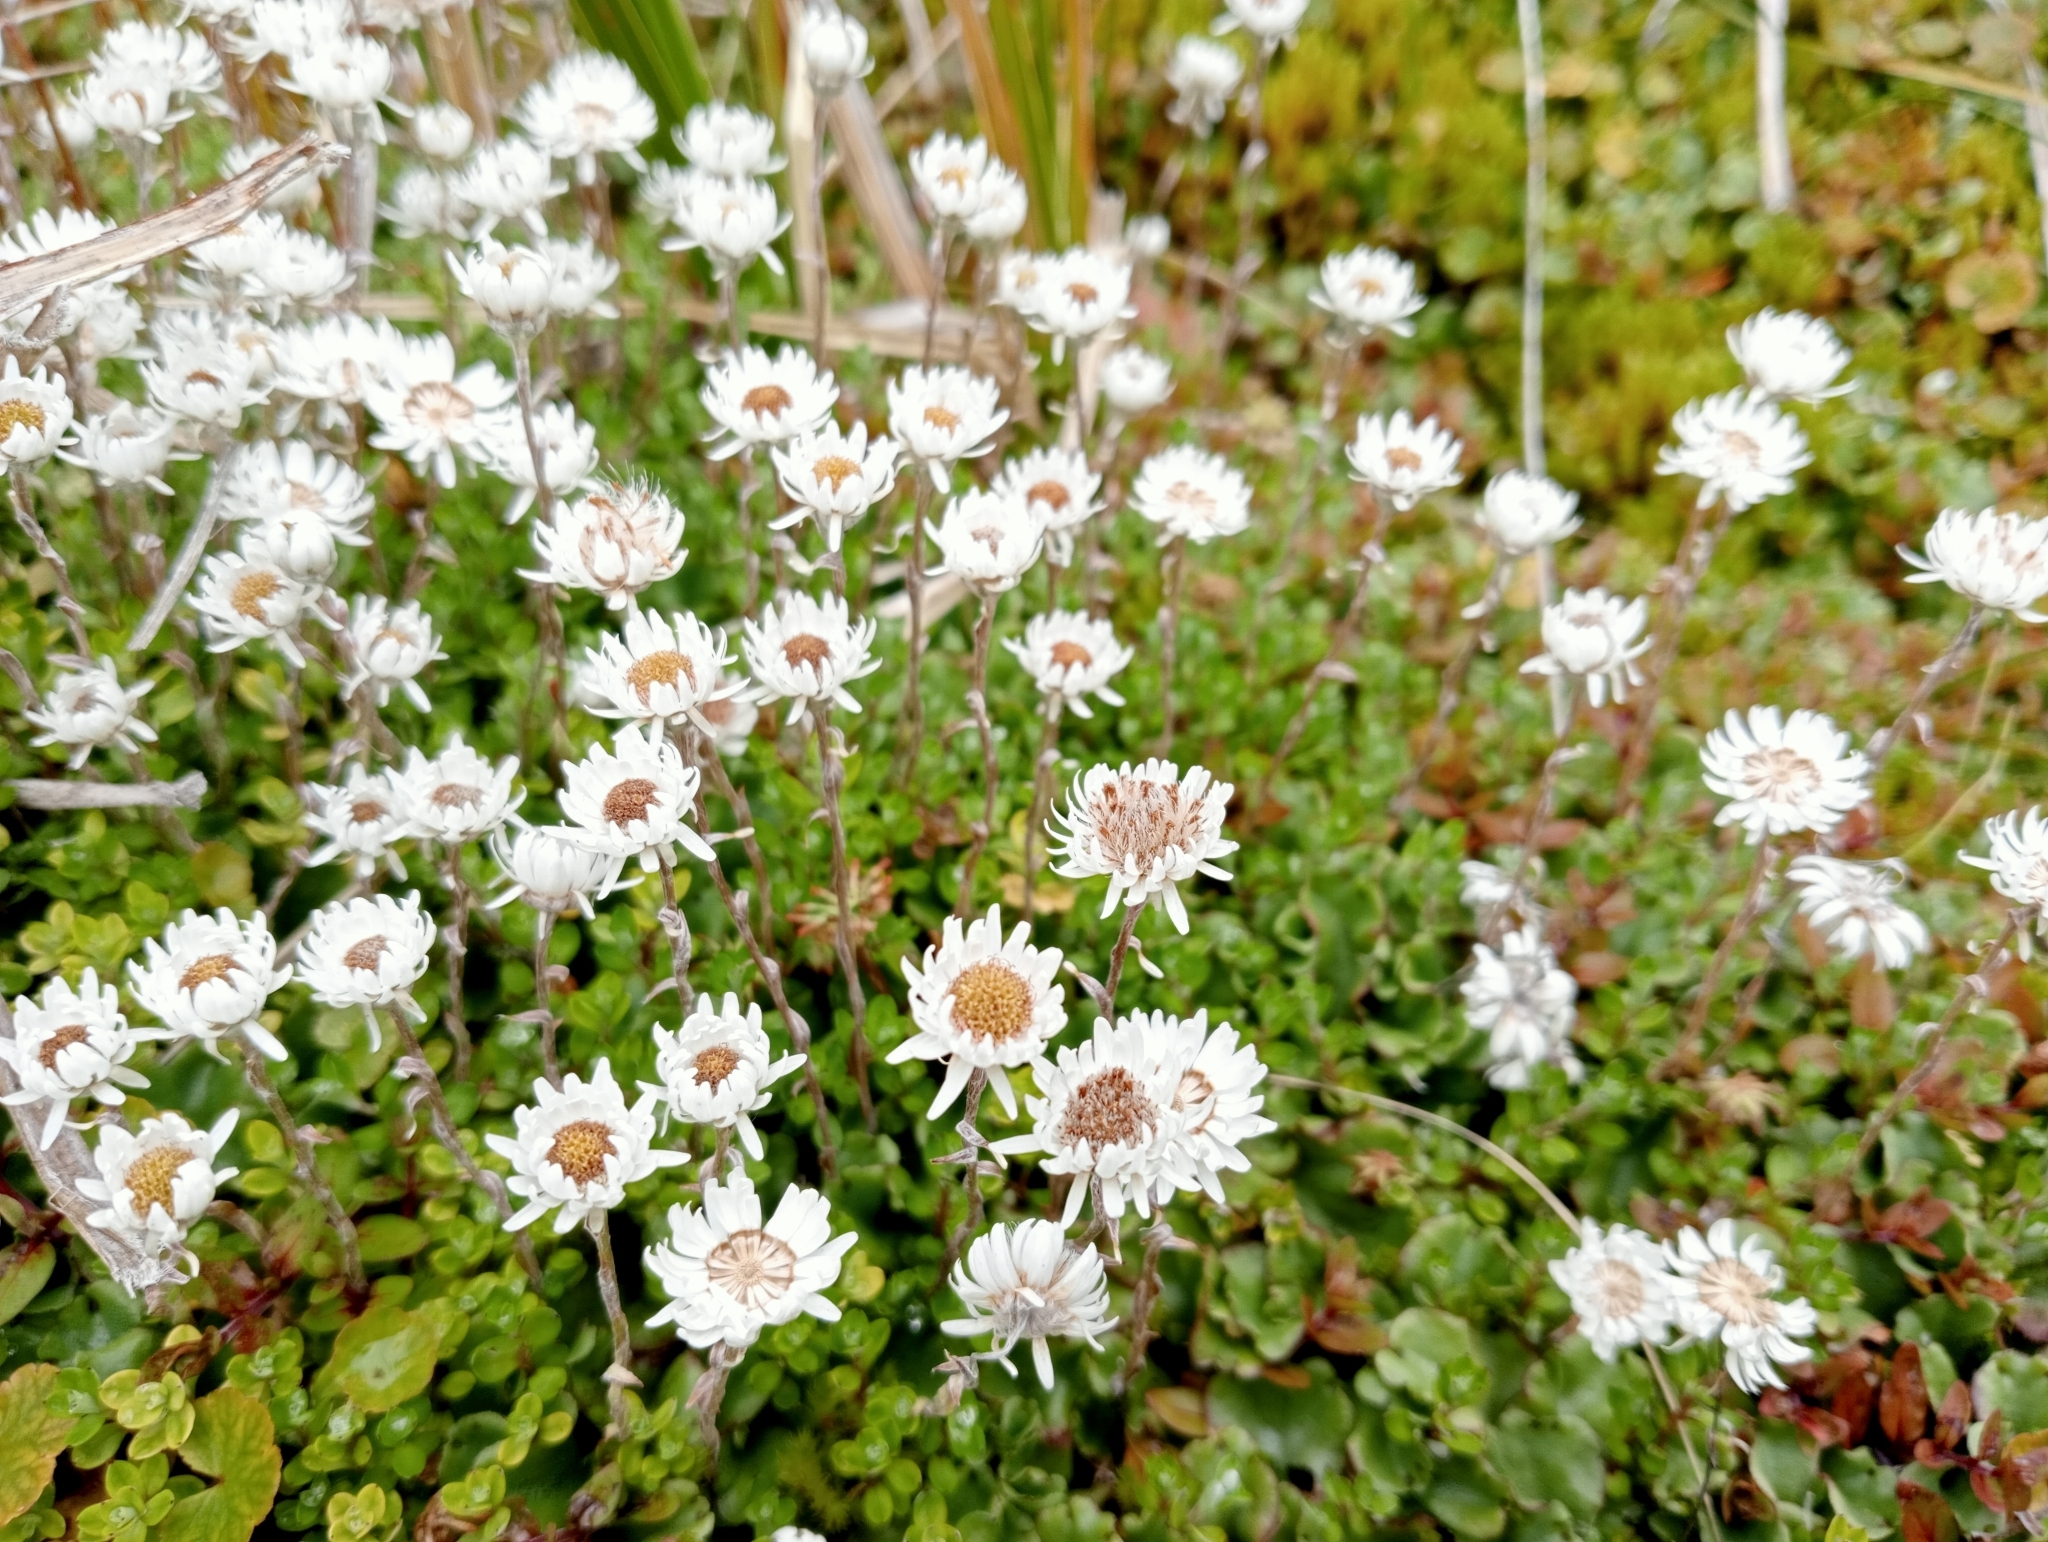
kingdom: Plantae
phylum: Tracheophyta
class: Magnoliopsida
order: Asterales
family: Asteraceae
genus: Anaphalioides
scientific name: Anaphalioides bellidioides
